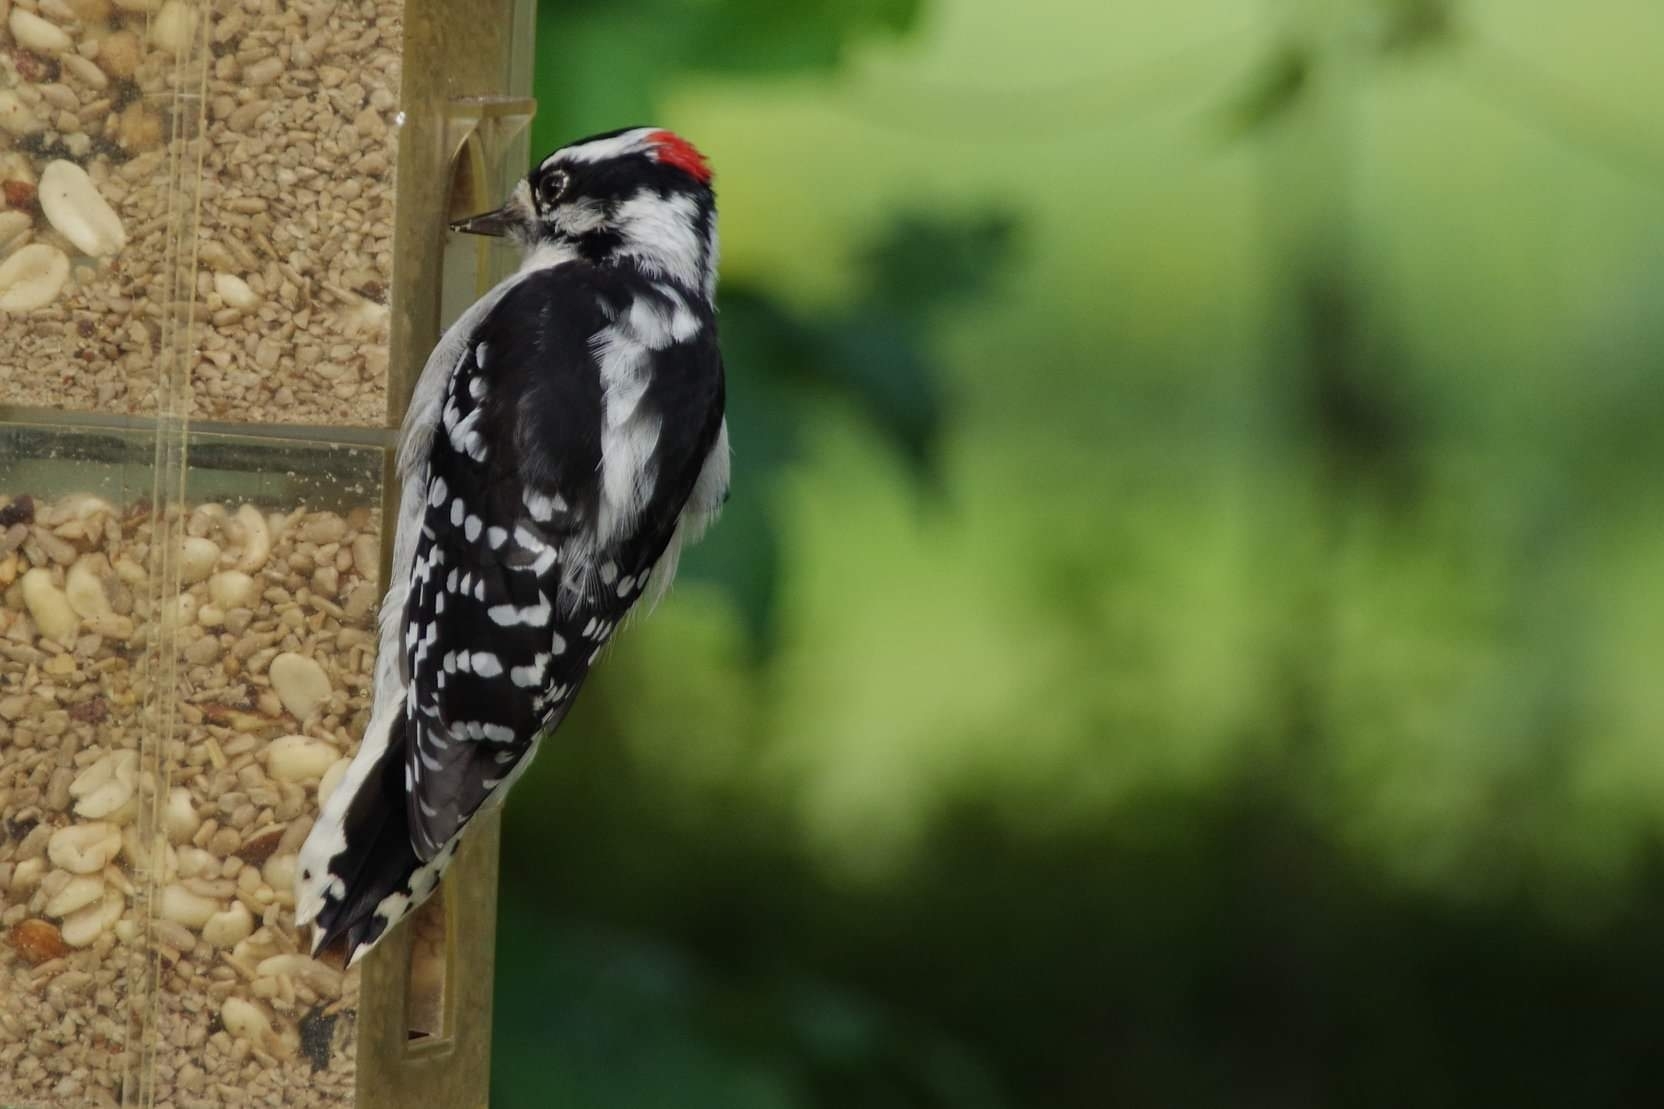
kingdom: Animalia
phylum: Chordata
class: Aves
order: Piciformes
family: Picidae
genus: Dryobates
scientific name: Dryobates pubescens
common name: Downy woodpecker
